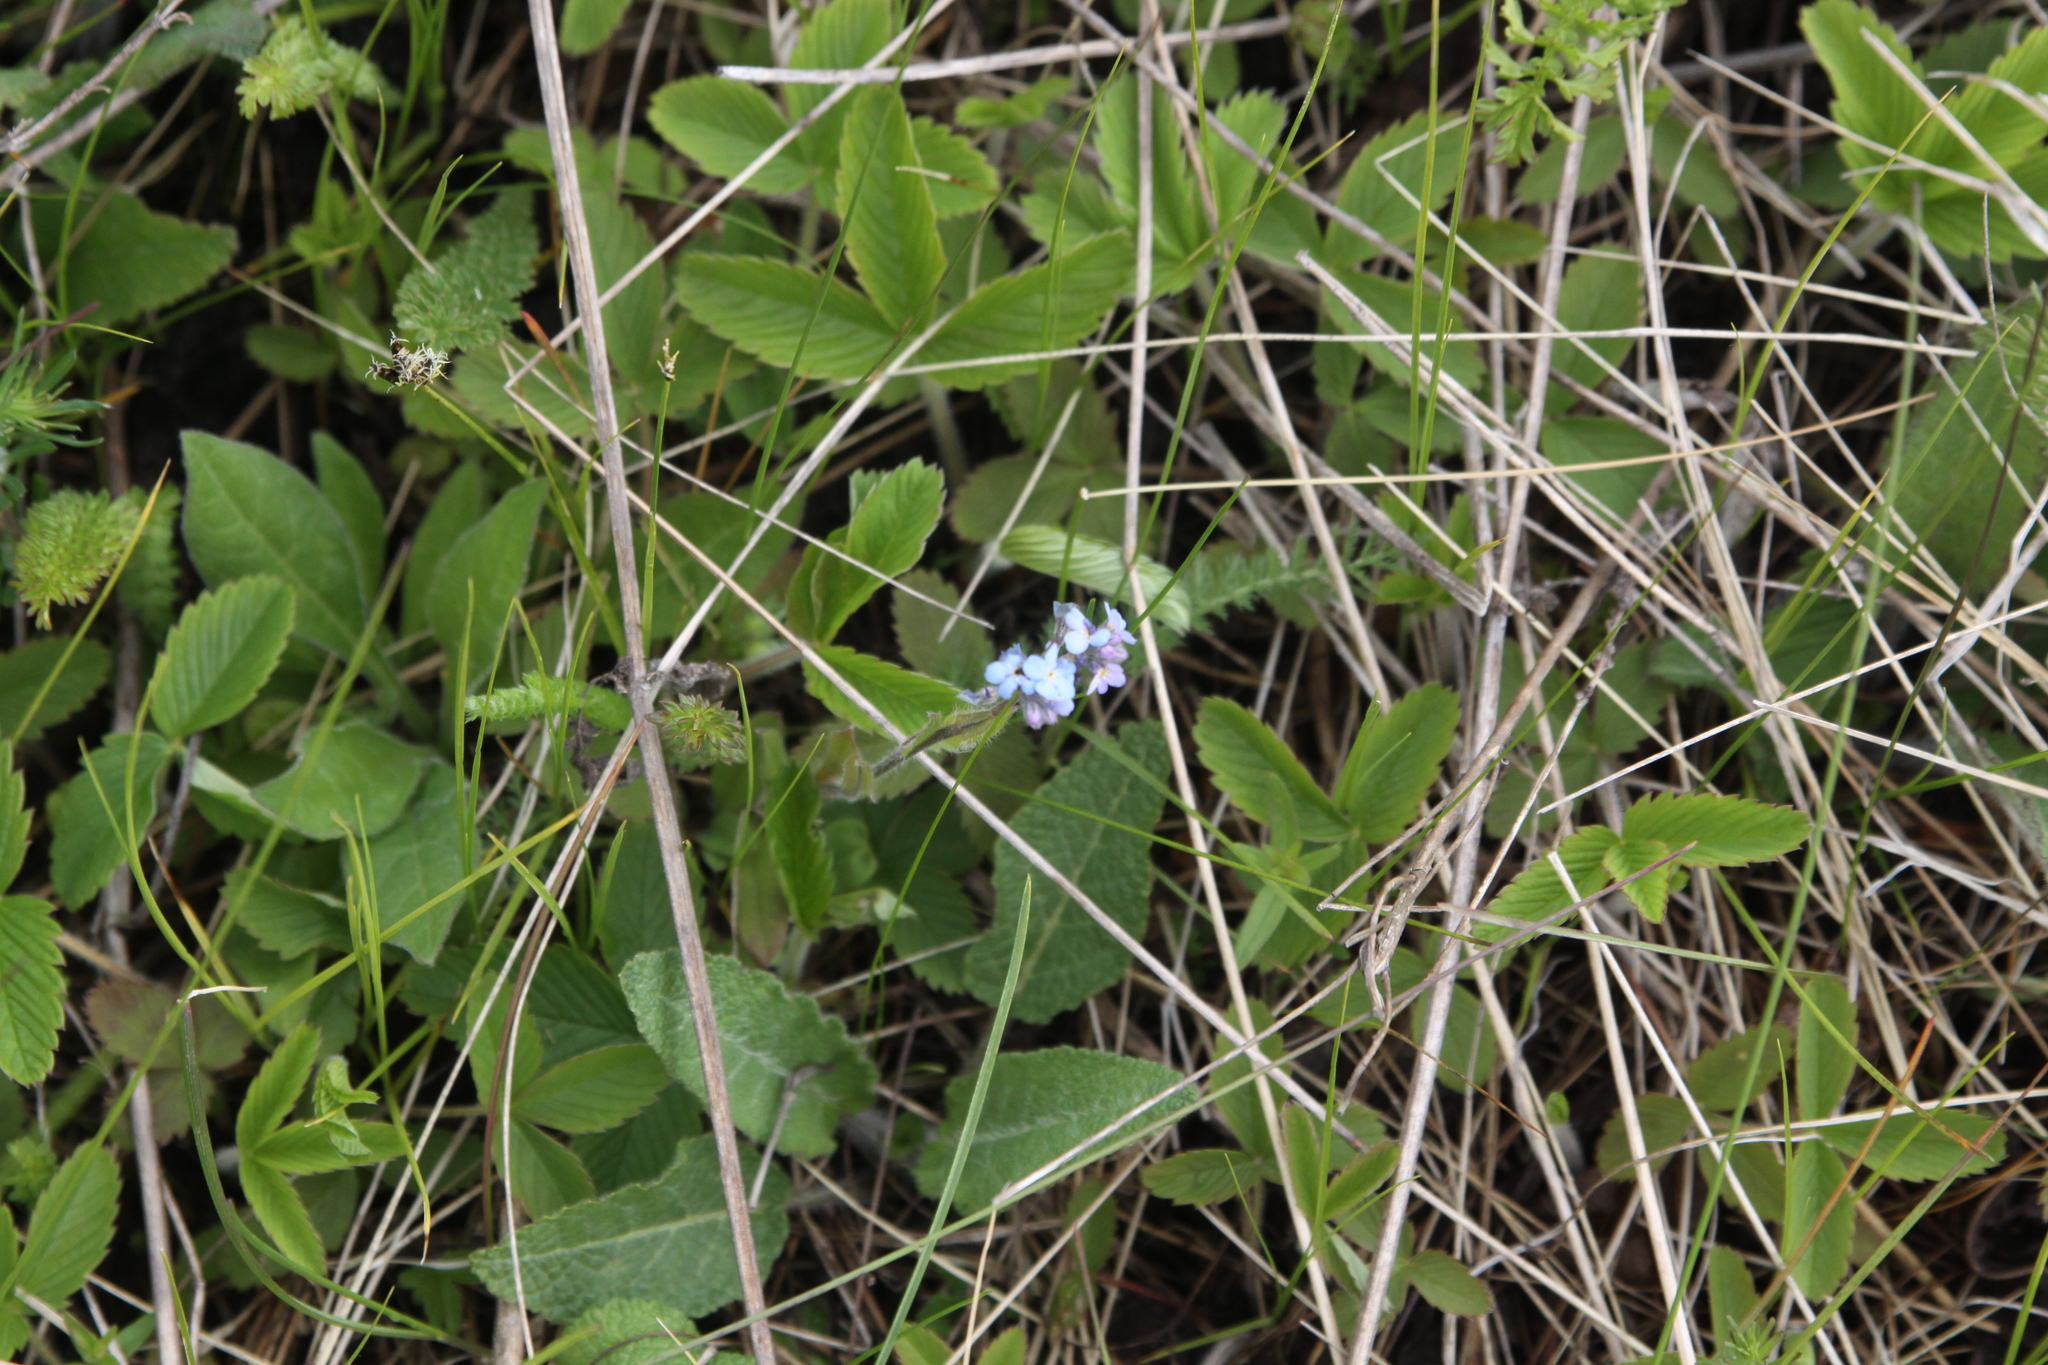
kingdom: Plantae
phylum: Tracheophyta
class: Magnoliopsida
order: Boraginales
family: Boraginaceae
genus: Myosotis
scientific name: Myosotis alpestris
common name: Alpine forget-me-not
